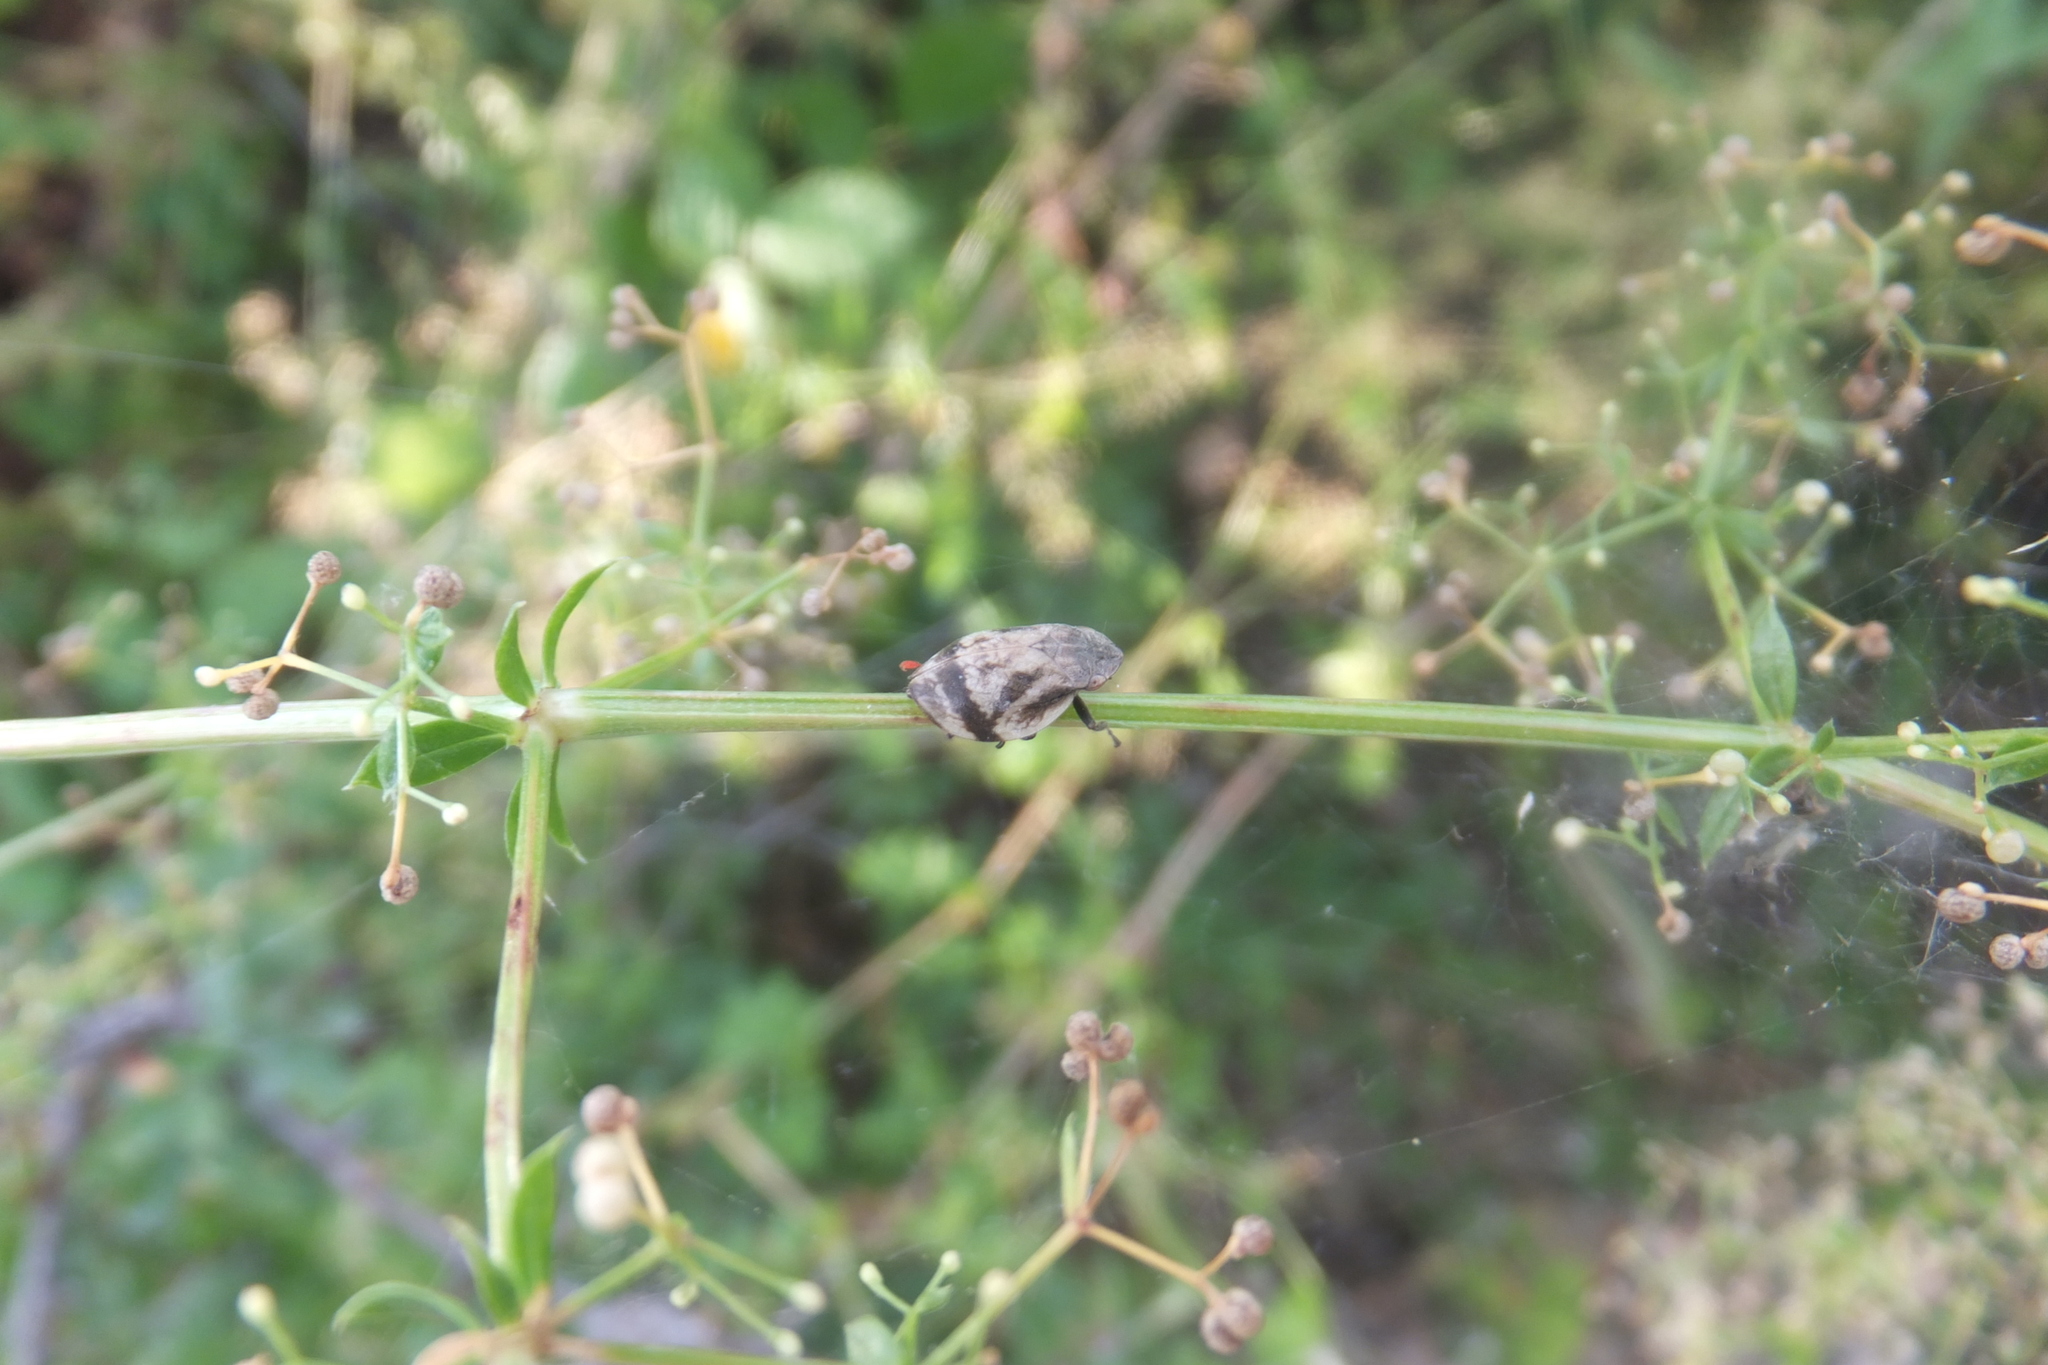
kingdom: Animalia
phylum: Arthropoda
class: Insecta
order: Hemiptera
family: Aphrophoridae
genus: Lepyronia
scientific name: Lepyronia coleoptrata
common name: Leafhopper
